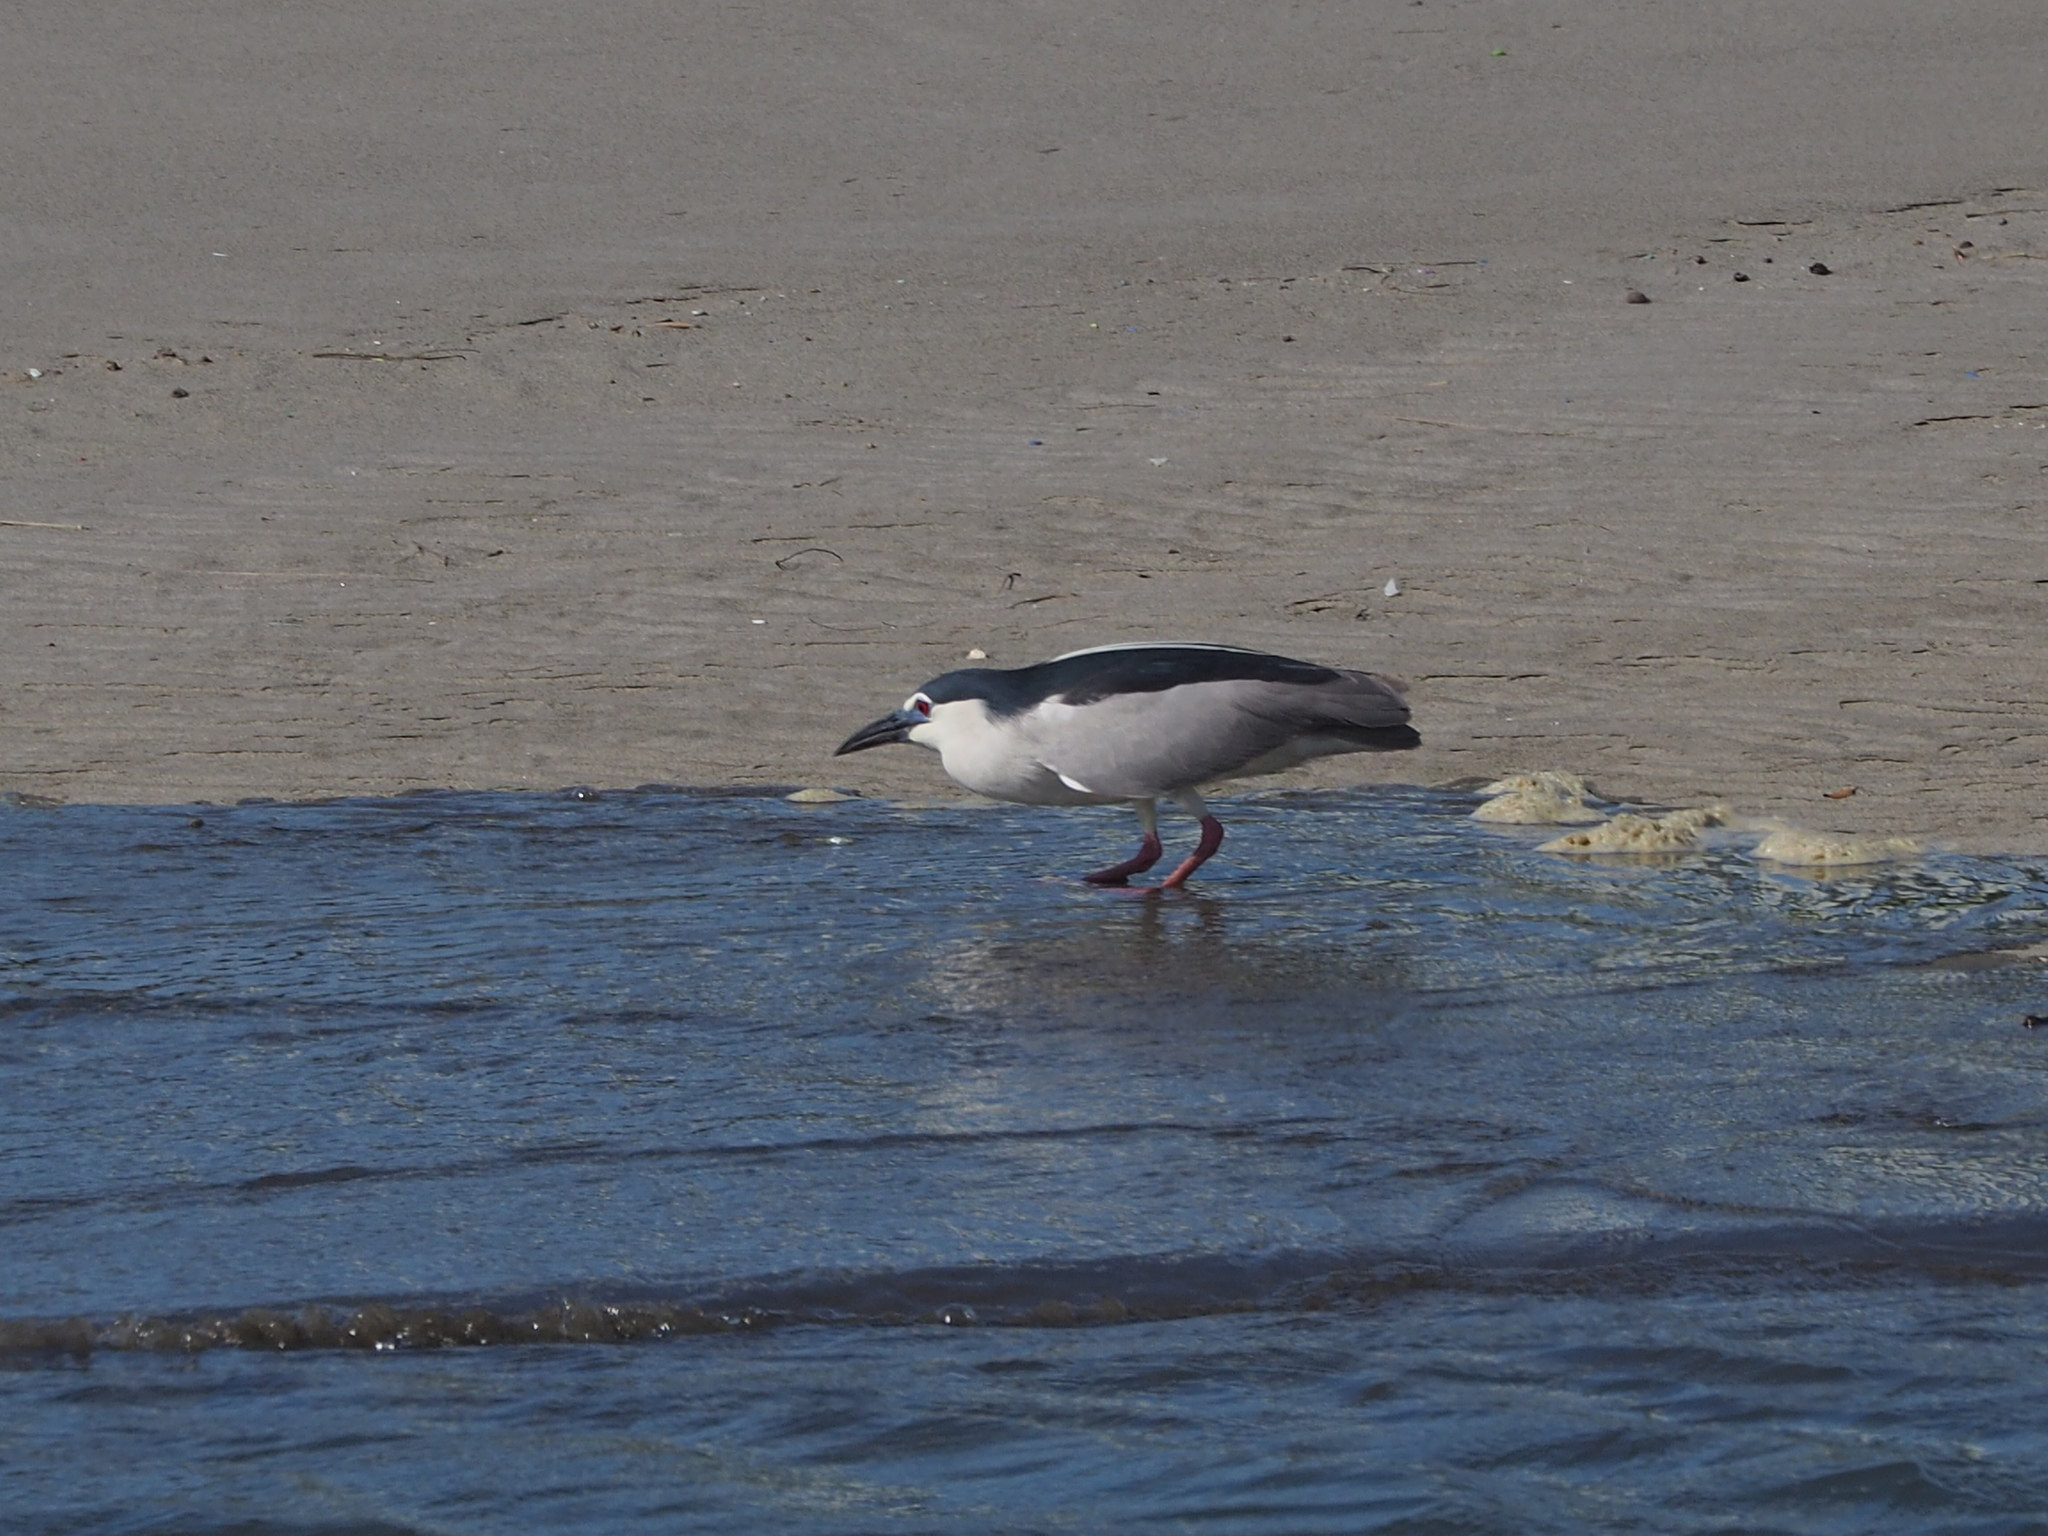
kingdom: Animalia
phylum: Chordata
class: Aves
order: Pelecaniformes
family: Ardeidae
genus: Nycticorax
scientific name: Nycticorax nycticorax
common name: Black-crowned night heron
